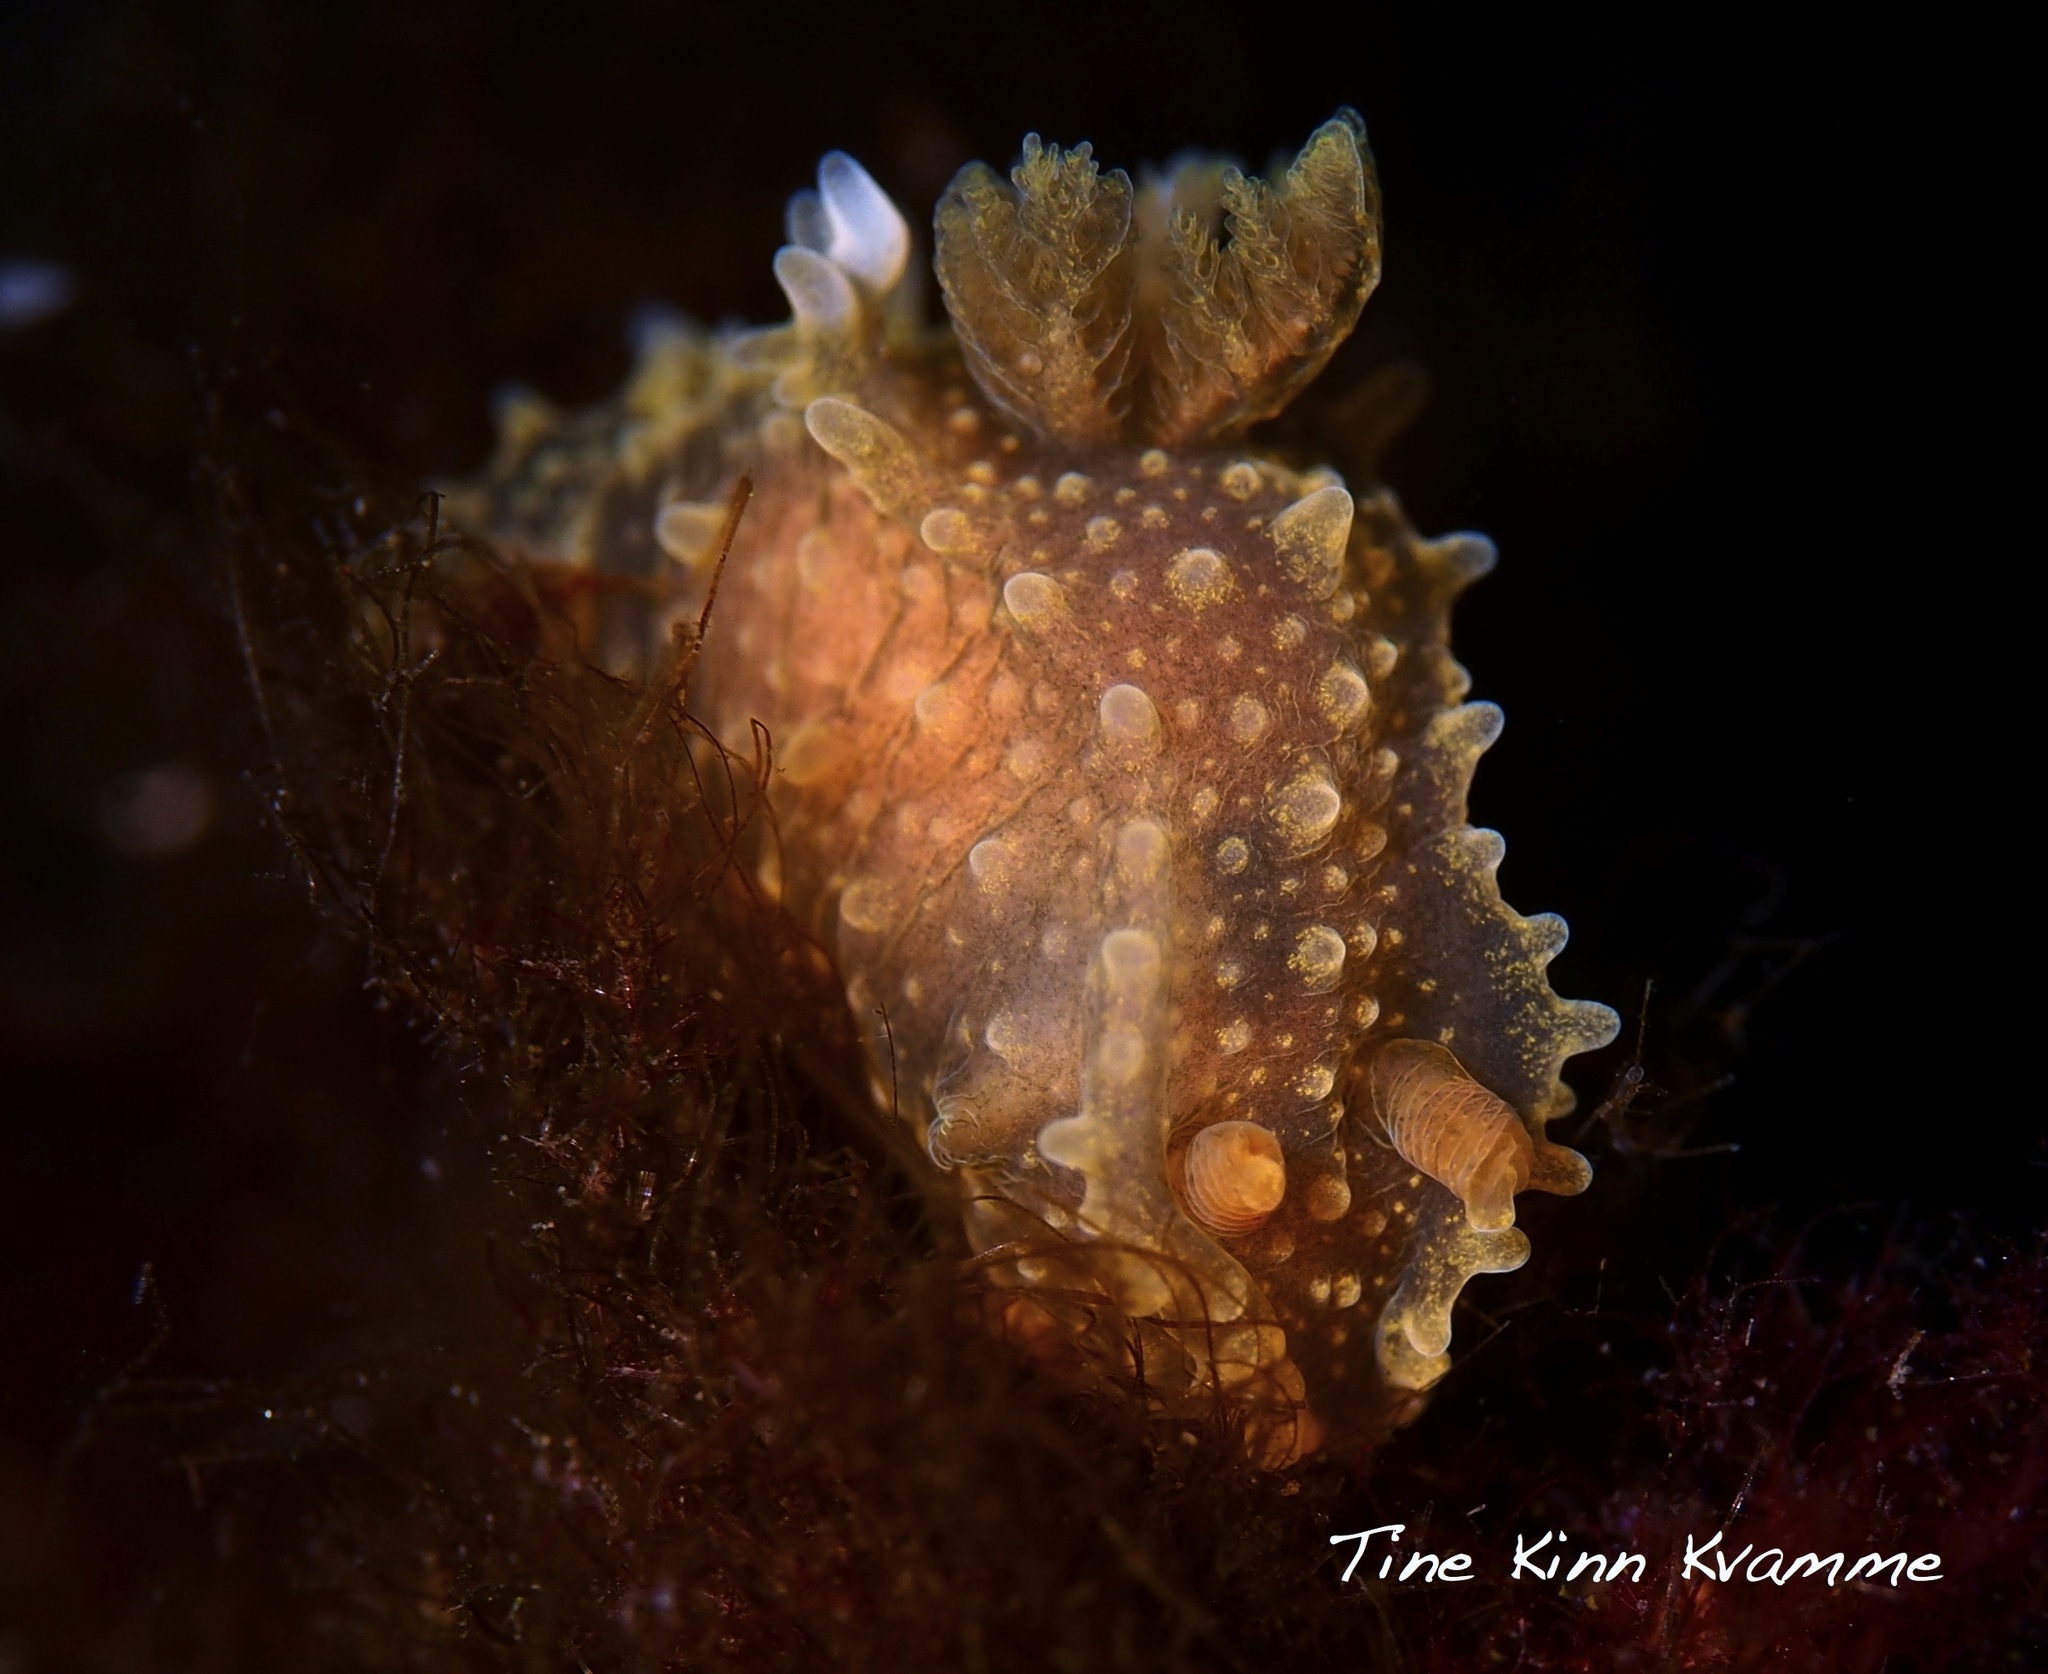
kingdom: Animalia
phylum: Mollusca
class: Gastropoda
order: Nudibranchia
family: Polyceridae
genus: Palio
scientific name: Palio dubia
